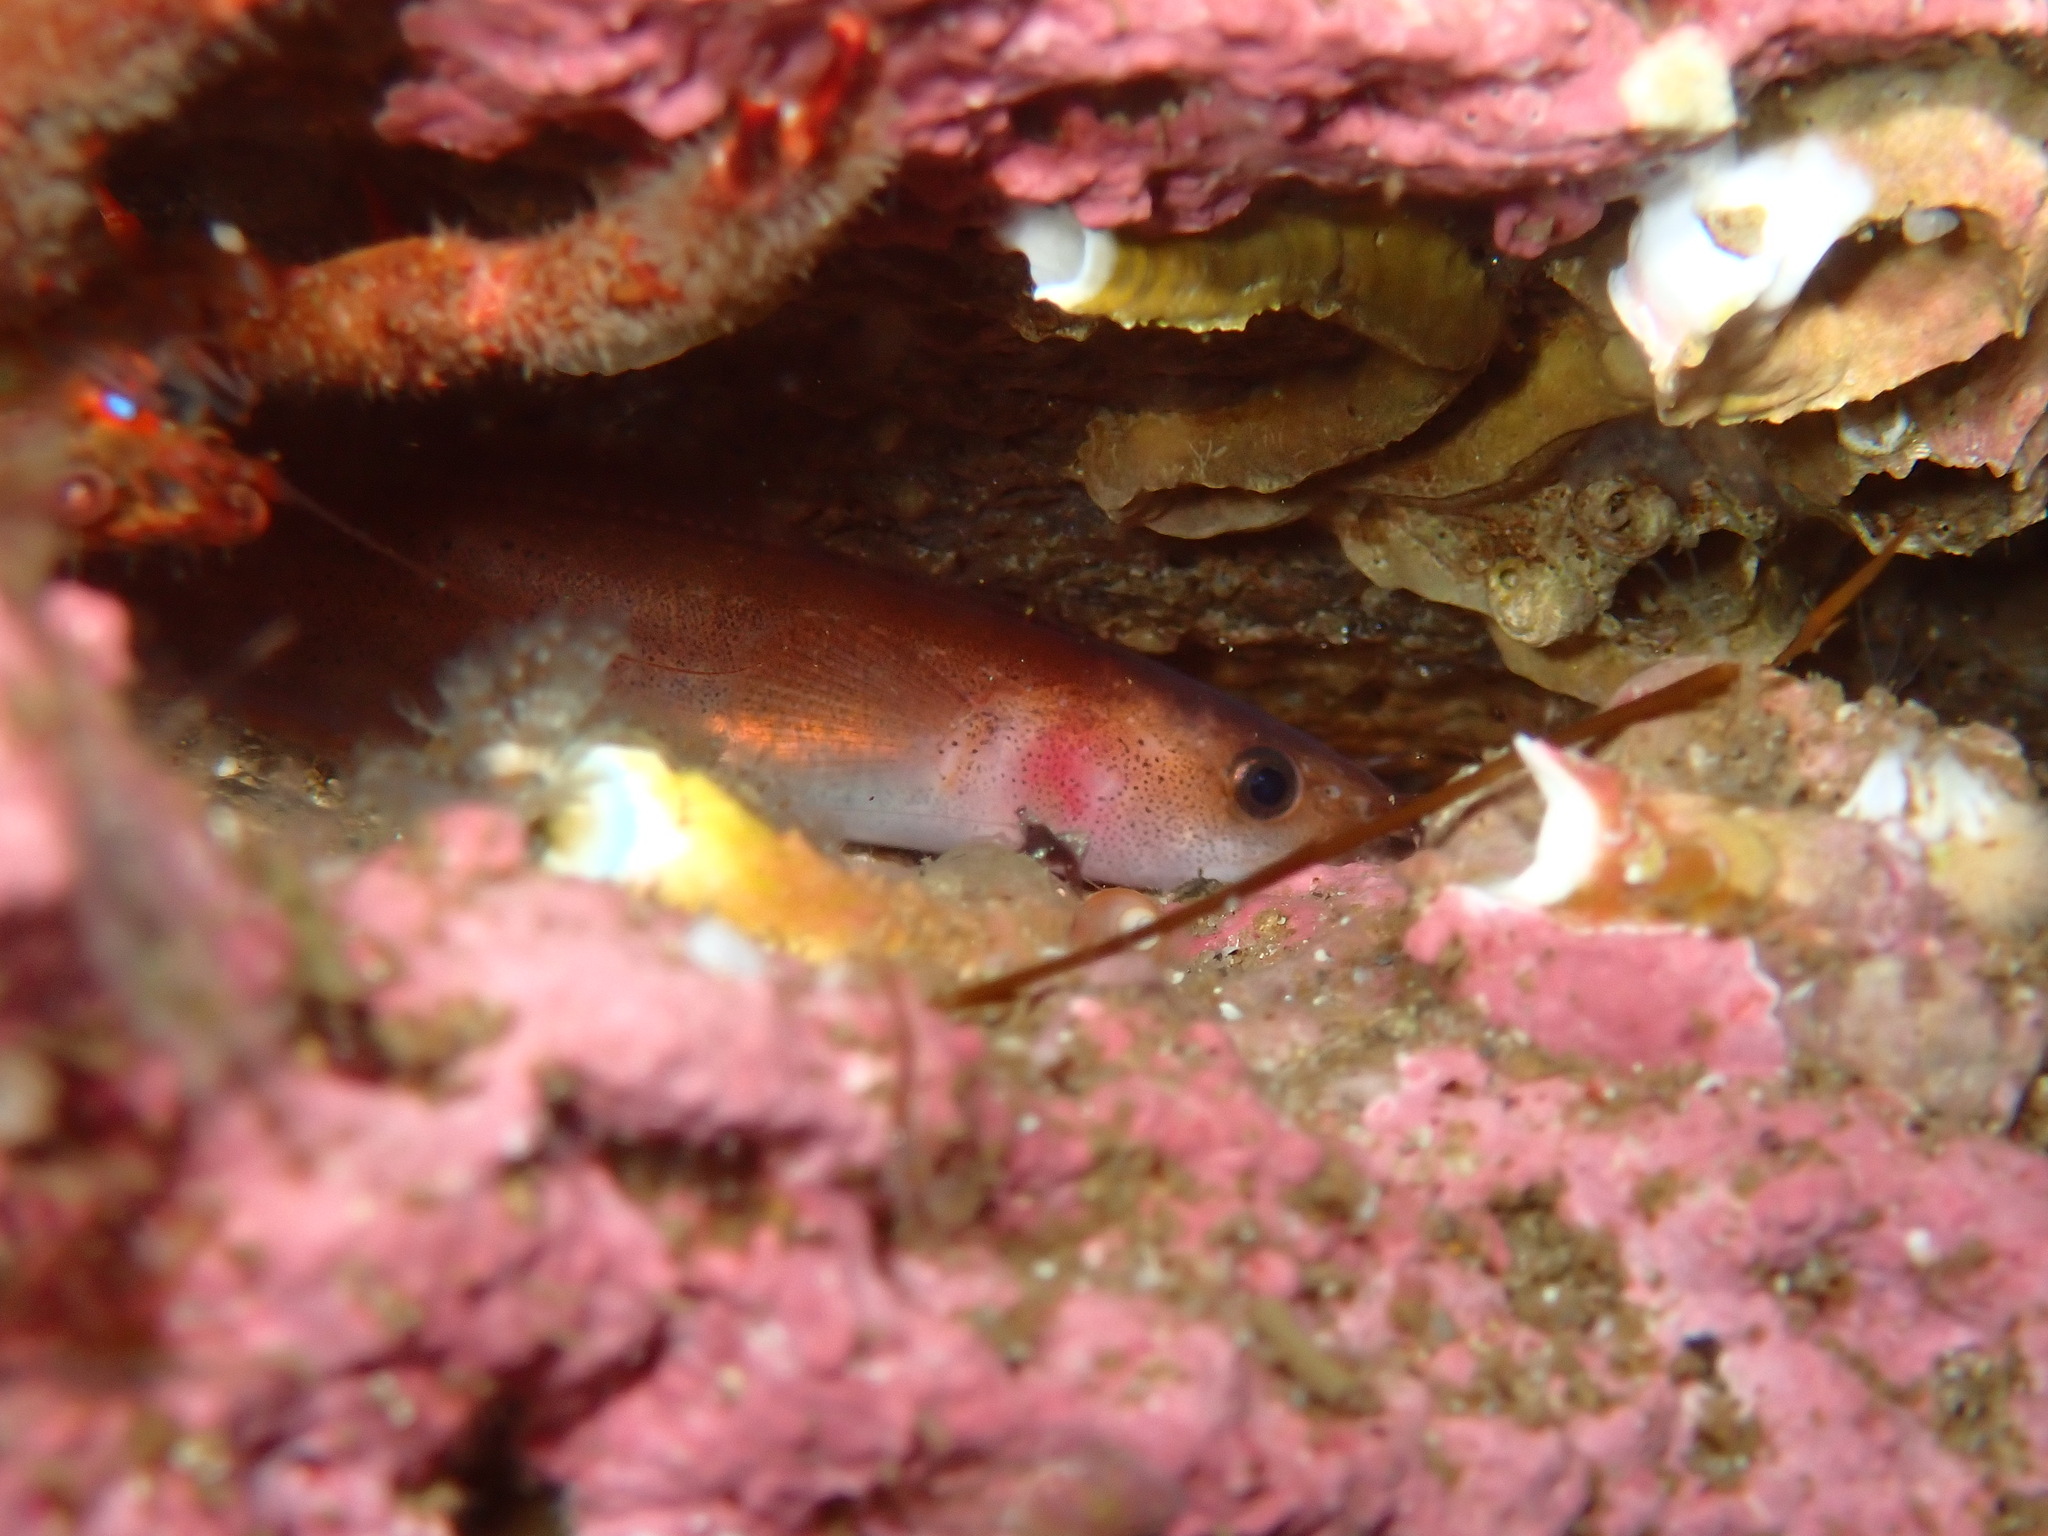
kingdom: Animalia
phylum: Chordata
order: Gadiformes
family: Lotidae
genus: Ciliata
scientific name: Ciliata septentrionalis
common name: Northern rockling
